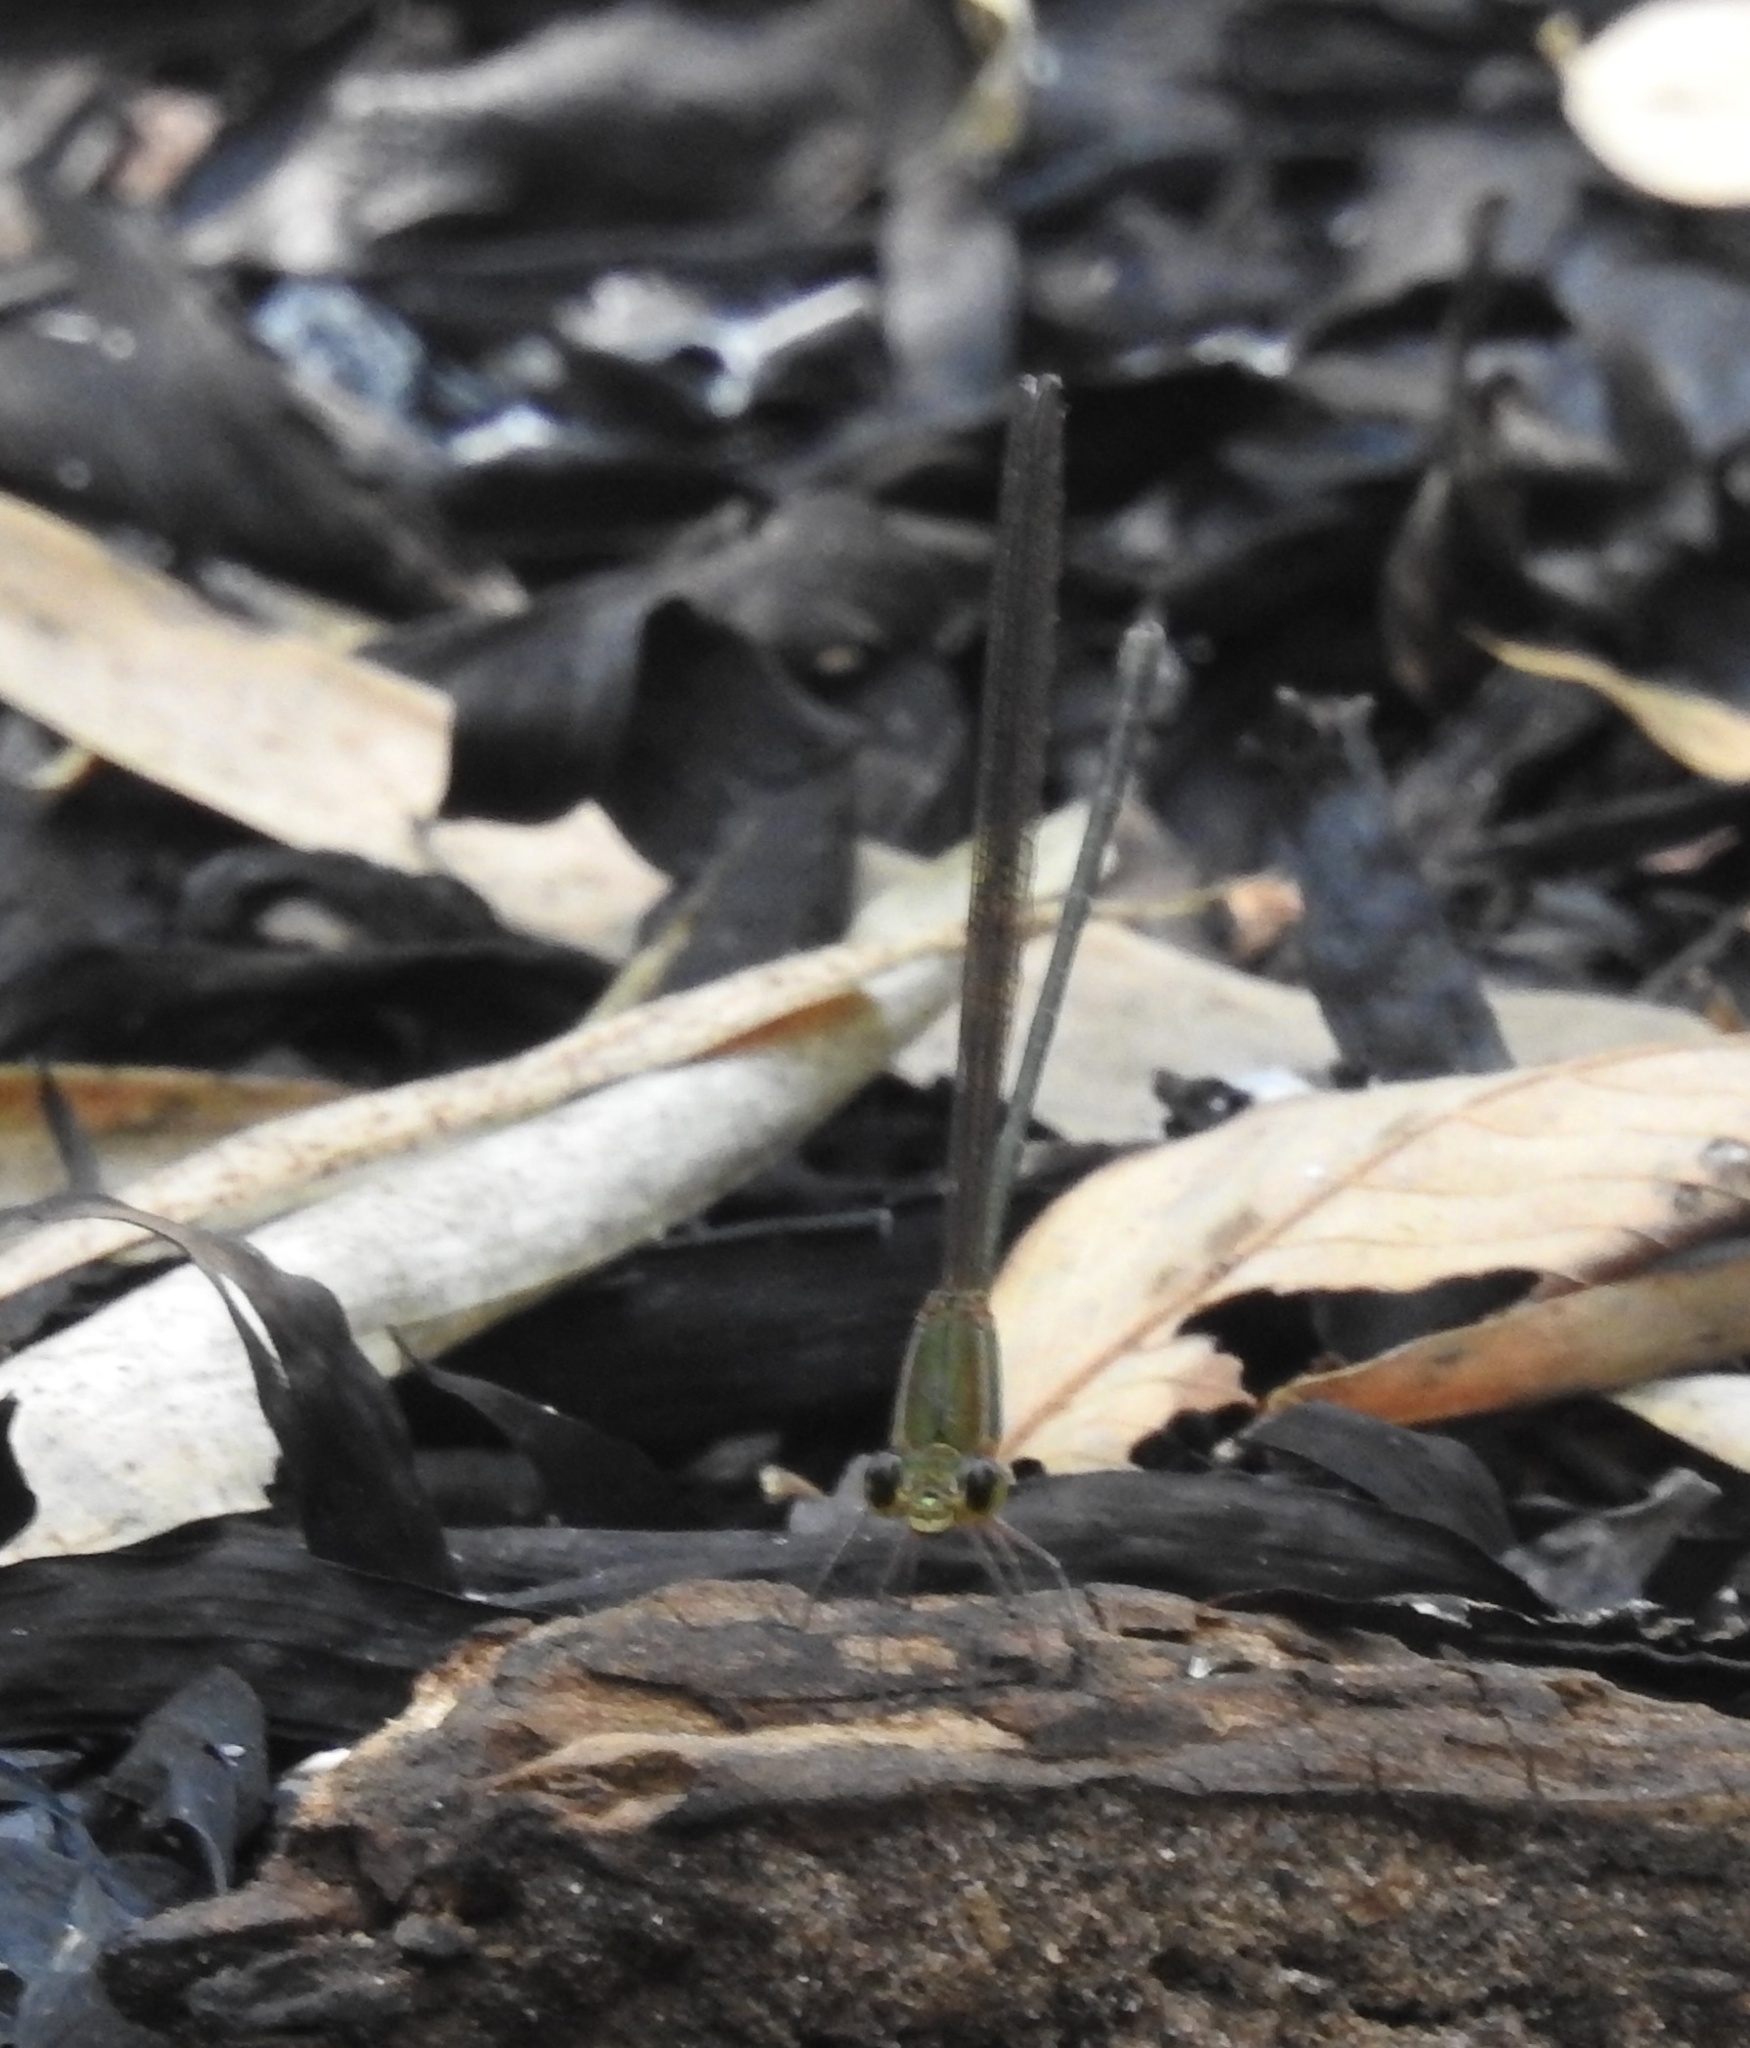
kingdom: Animalia
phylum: Arthropoda
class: Insecta
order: Odonata
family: Calopterygidae
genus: Vestalis
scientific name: Vestalis gracilis
